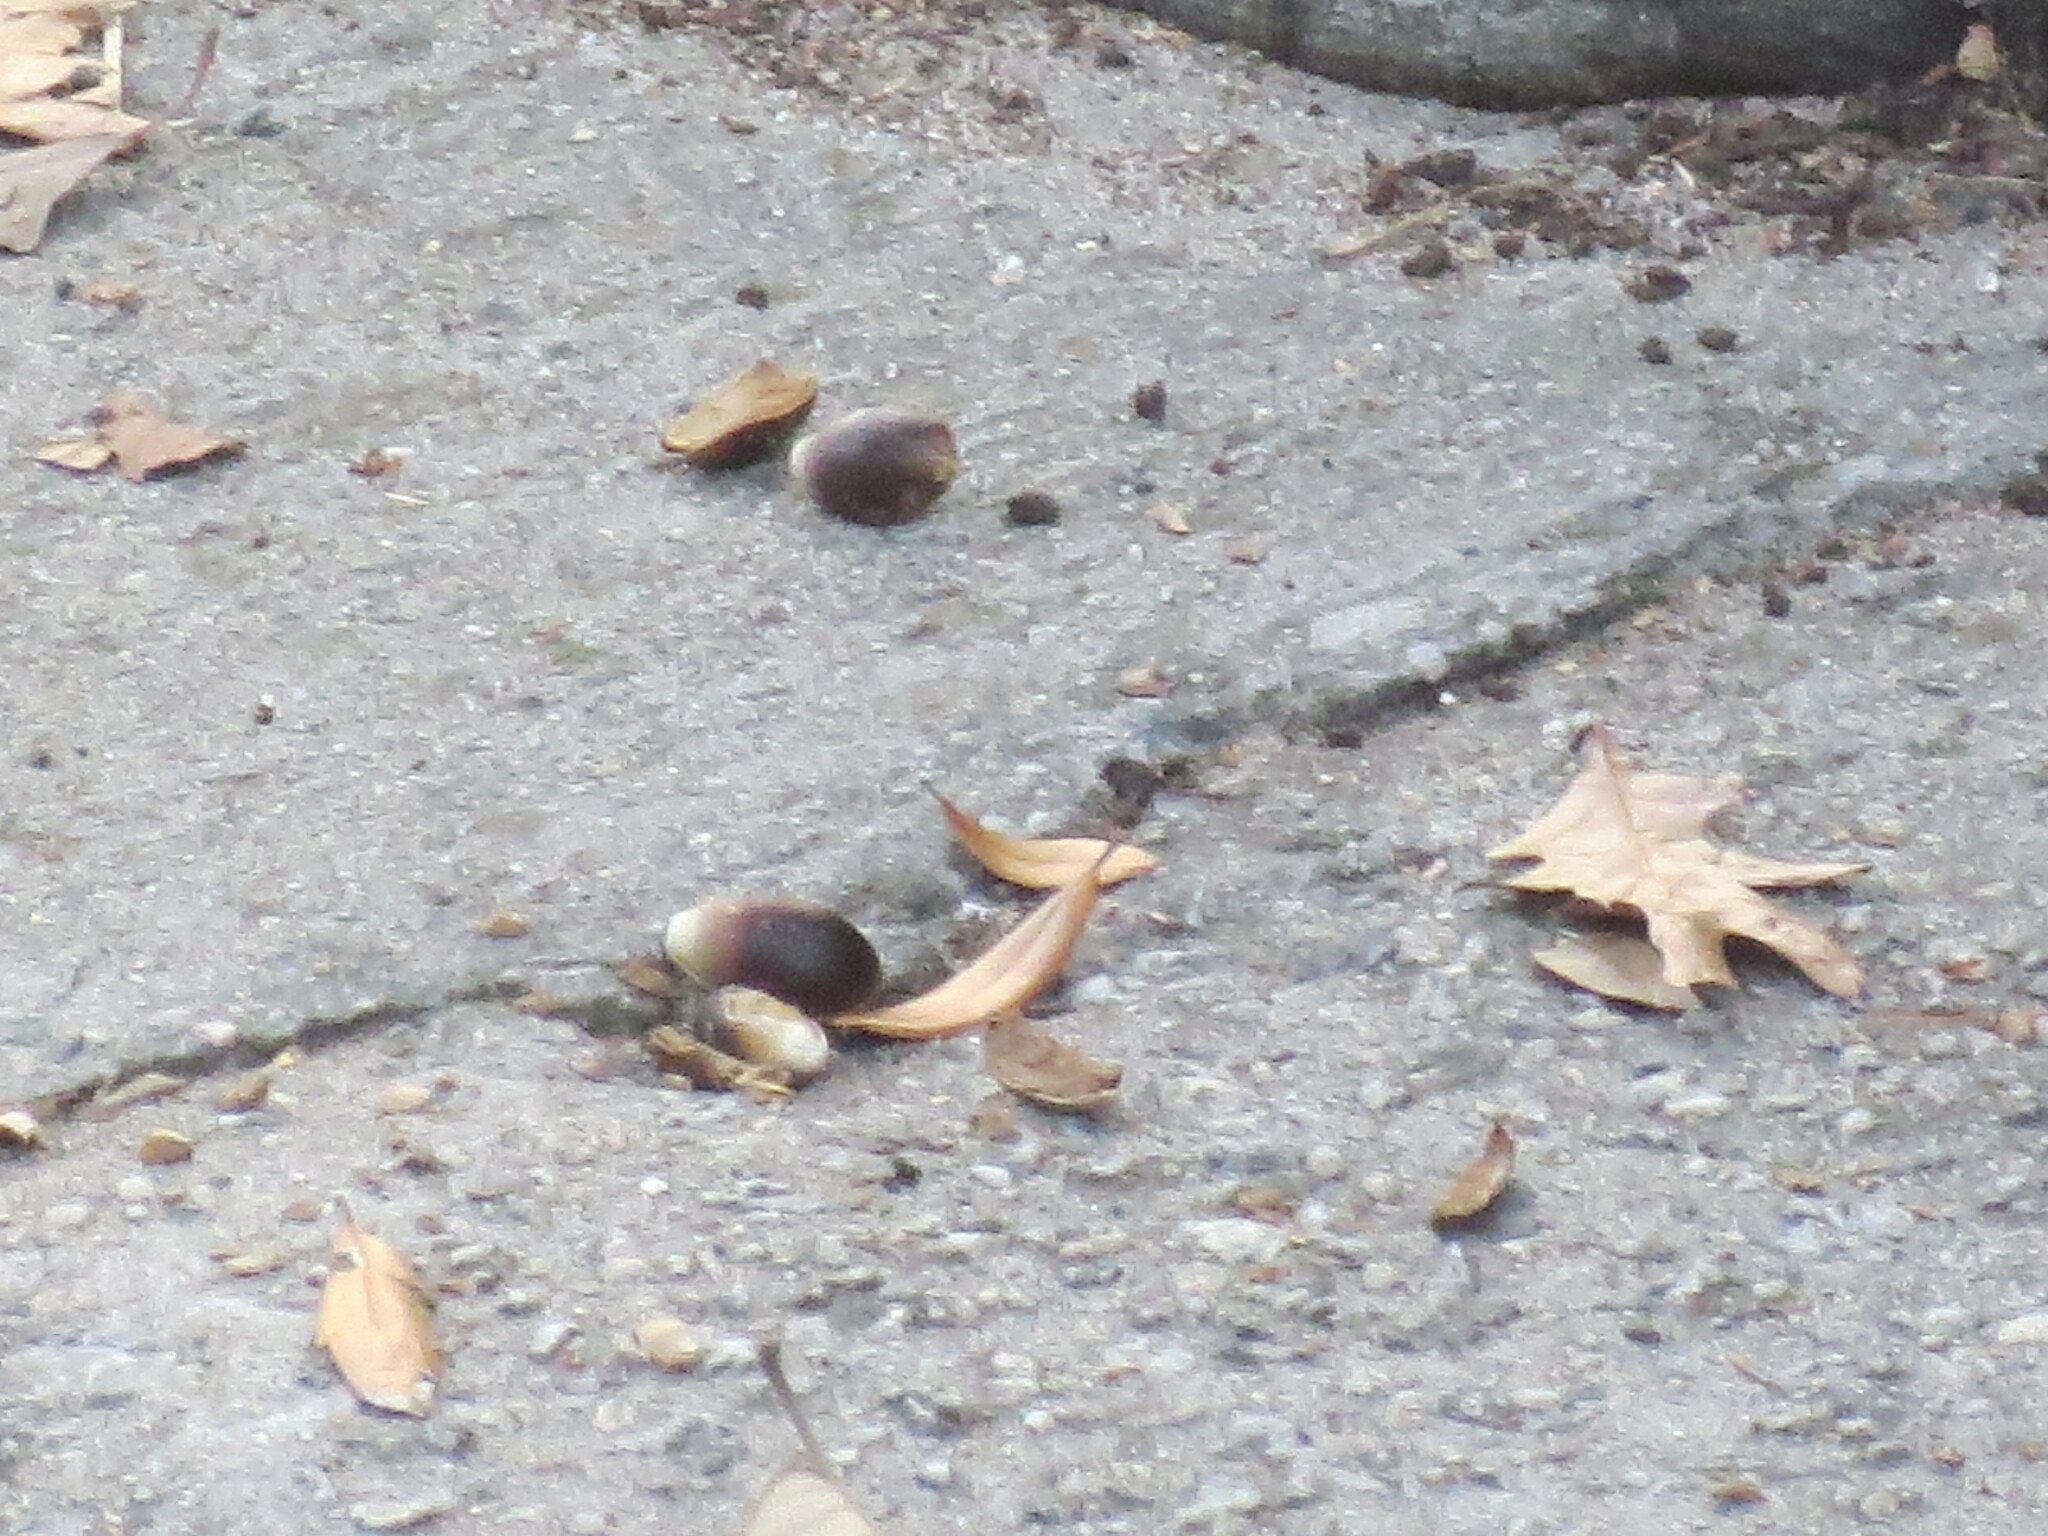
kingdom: Plantae
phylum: Tracheophyta
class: Magnoliopsida
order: Fagales
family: Fagaceae
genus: Quercus
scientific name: Quercus virginiana
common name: Southern live oak
